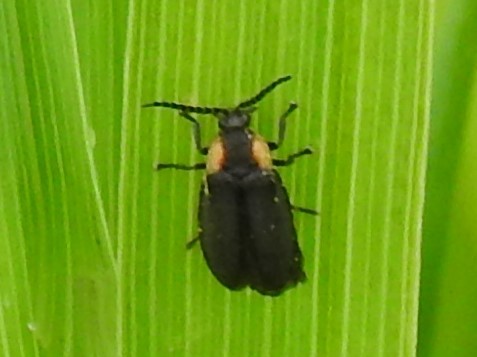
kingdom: Animalia
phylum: Arthropoda
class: Insecta
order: Coleoptera
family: Lampyridae
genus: Lucidota
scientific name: Lucidota atra
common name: Black firefly
